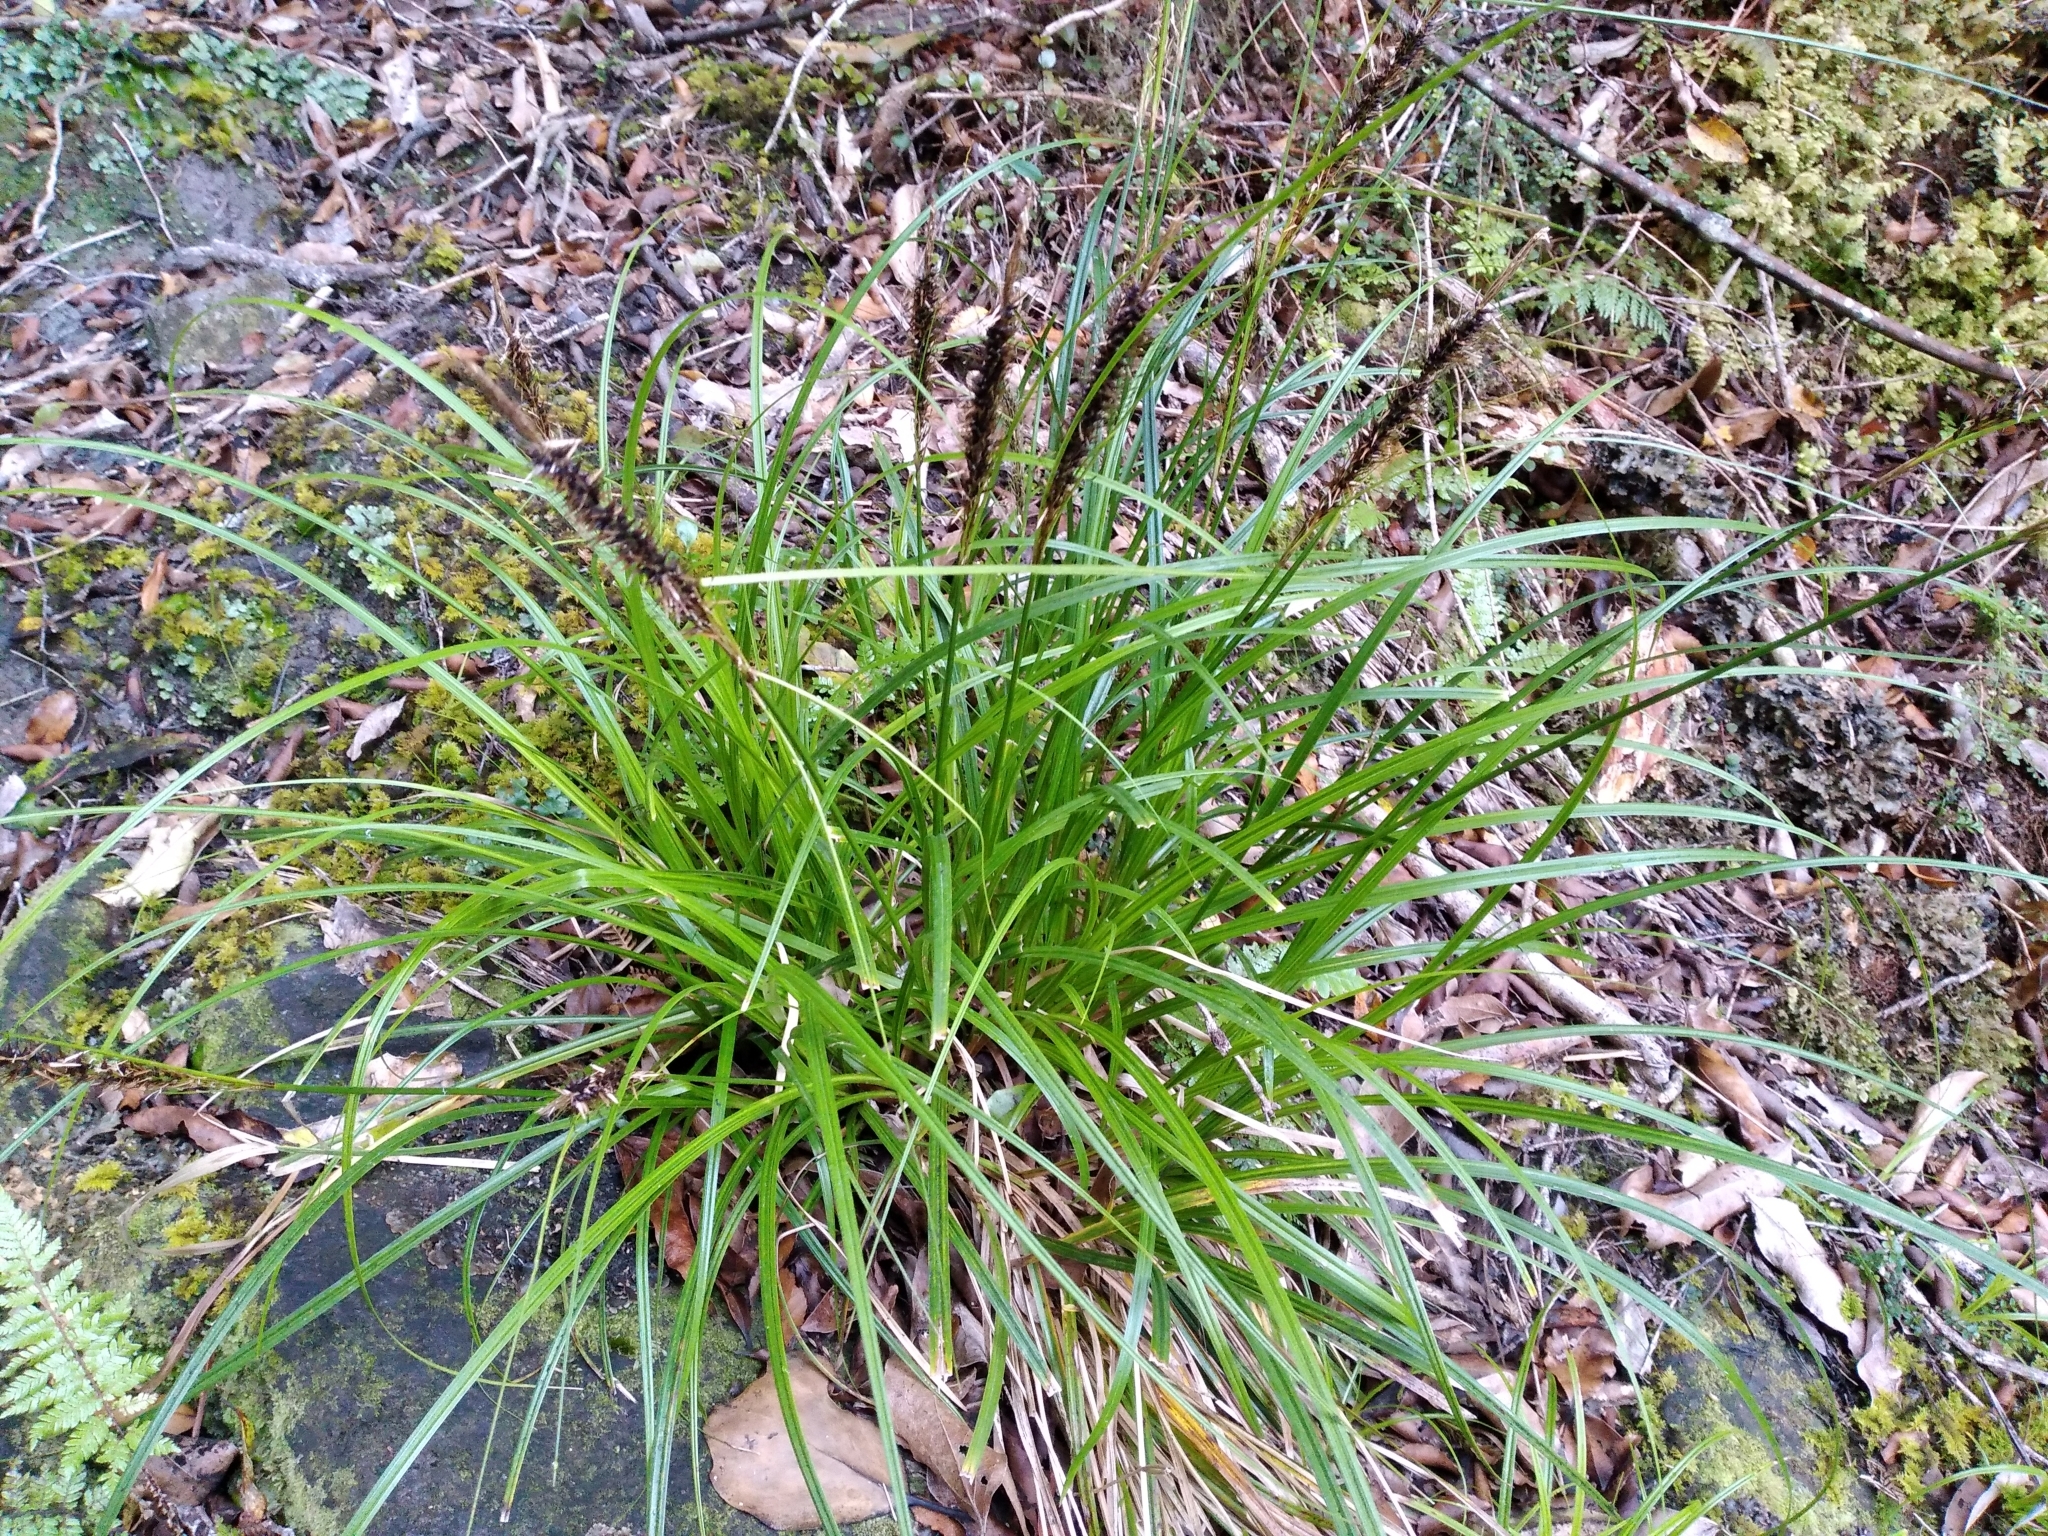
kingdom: Plantae
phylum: Tracheophyta
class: Liliopsida
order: Poales
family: Cyperaceae
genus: Carex
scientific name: Carex megalepis
